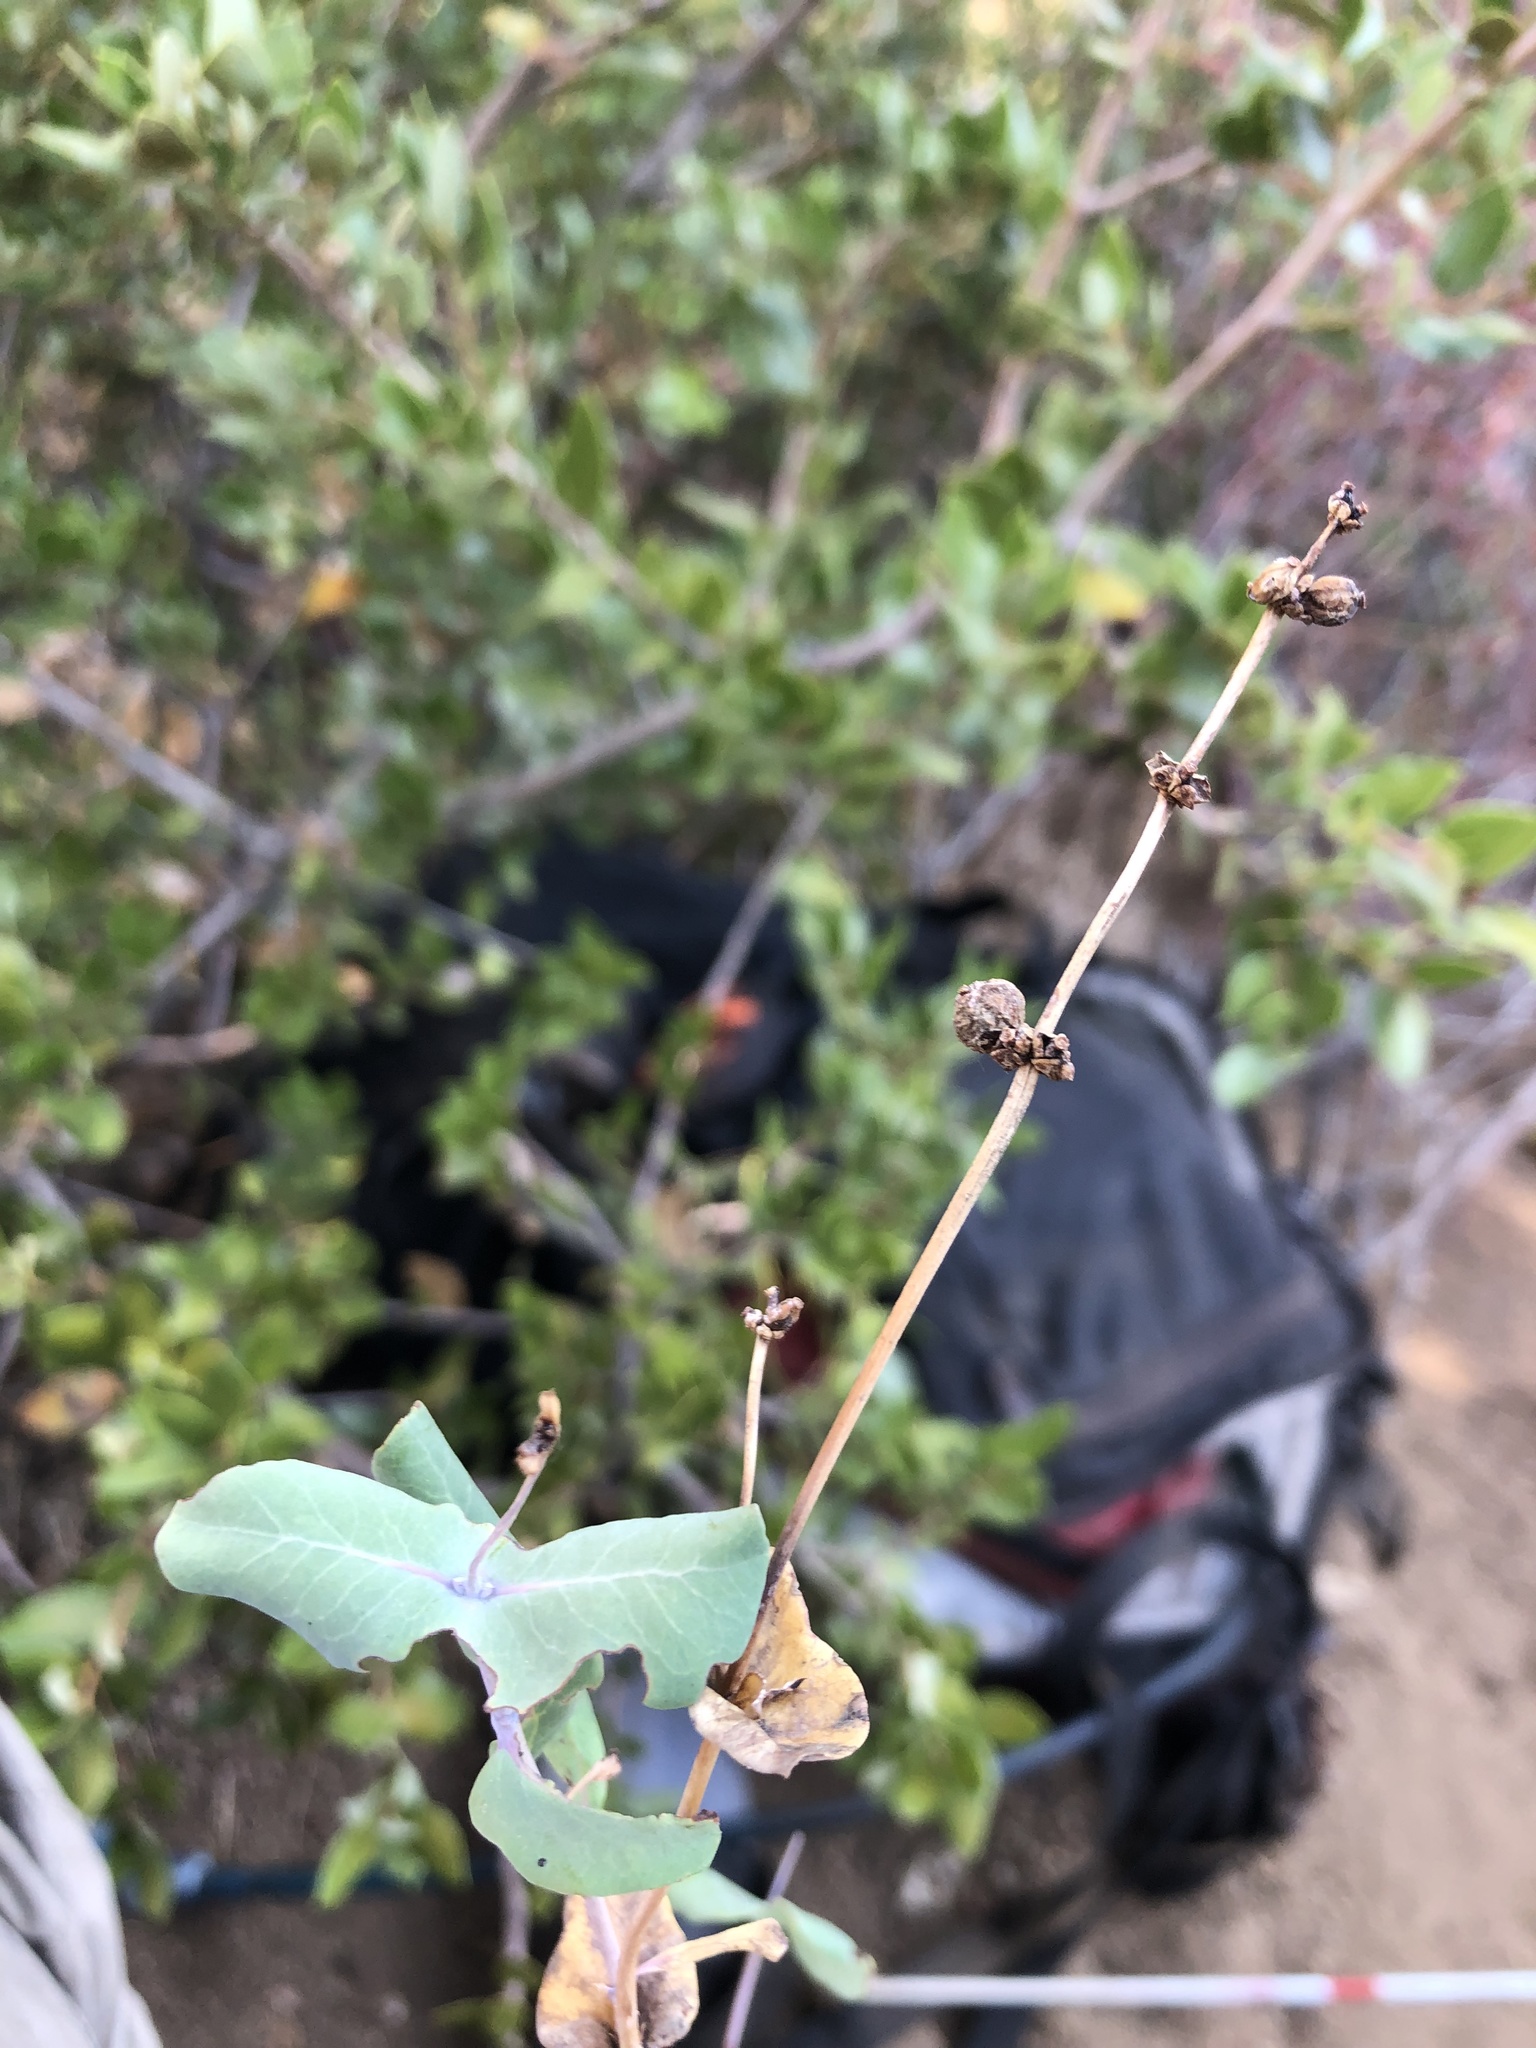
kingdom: Plantae
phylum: Tracheophyta
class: Magnoliopsida
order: Dipsacales
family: Caprifoliaceae
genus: Lonicera
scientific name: Lonicera interrupta
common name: Chaparral honeysuckle
